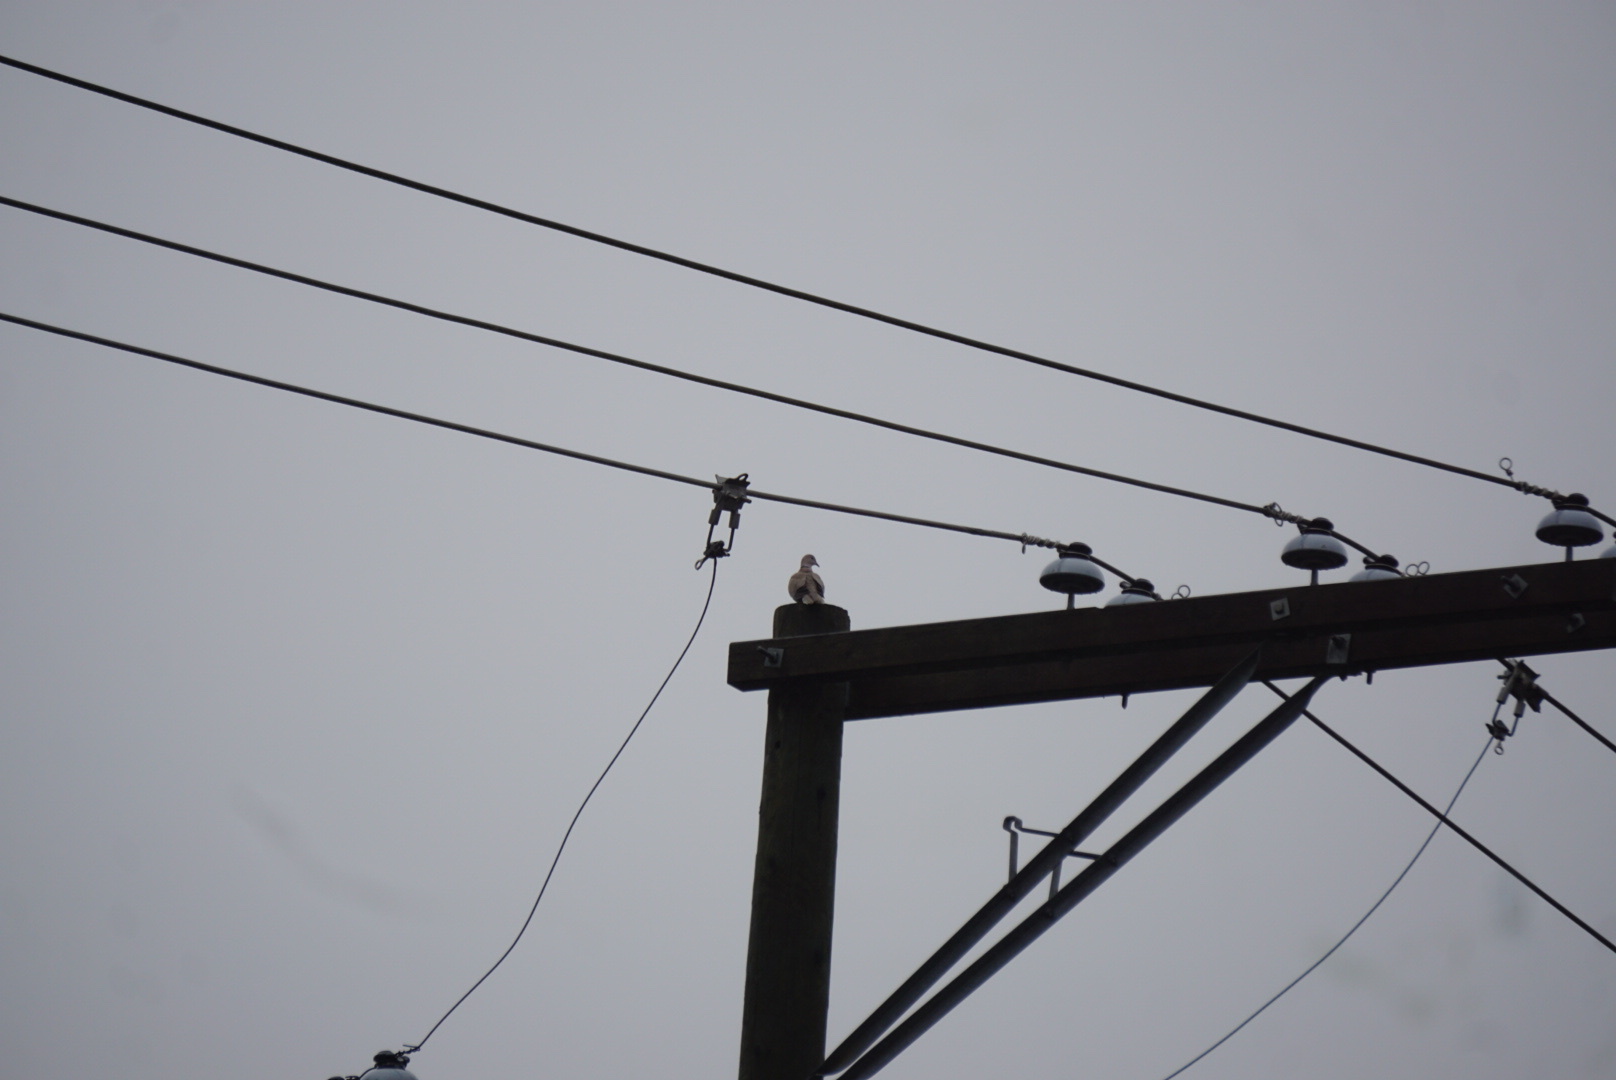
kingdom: Animalia
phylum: Chordata
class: Aves
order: Columbiformes
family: Columbidae
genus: Streptopelia
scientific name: Streptopelia decaocto
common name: Eurasian collared dove
